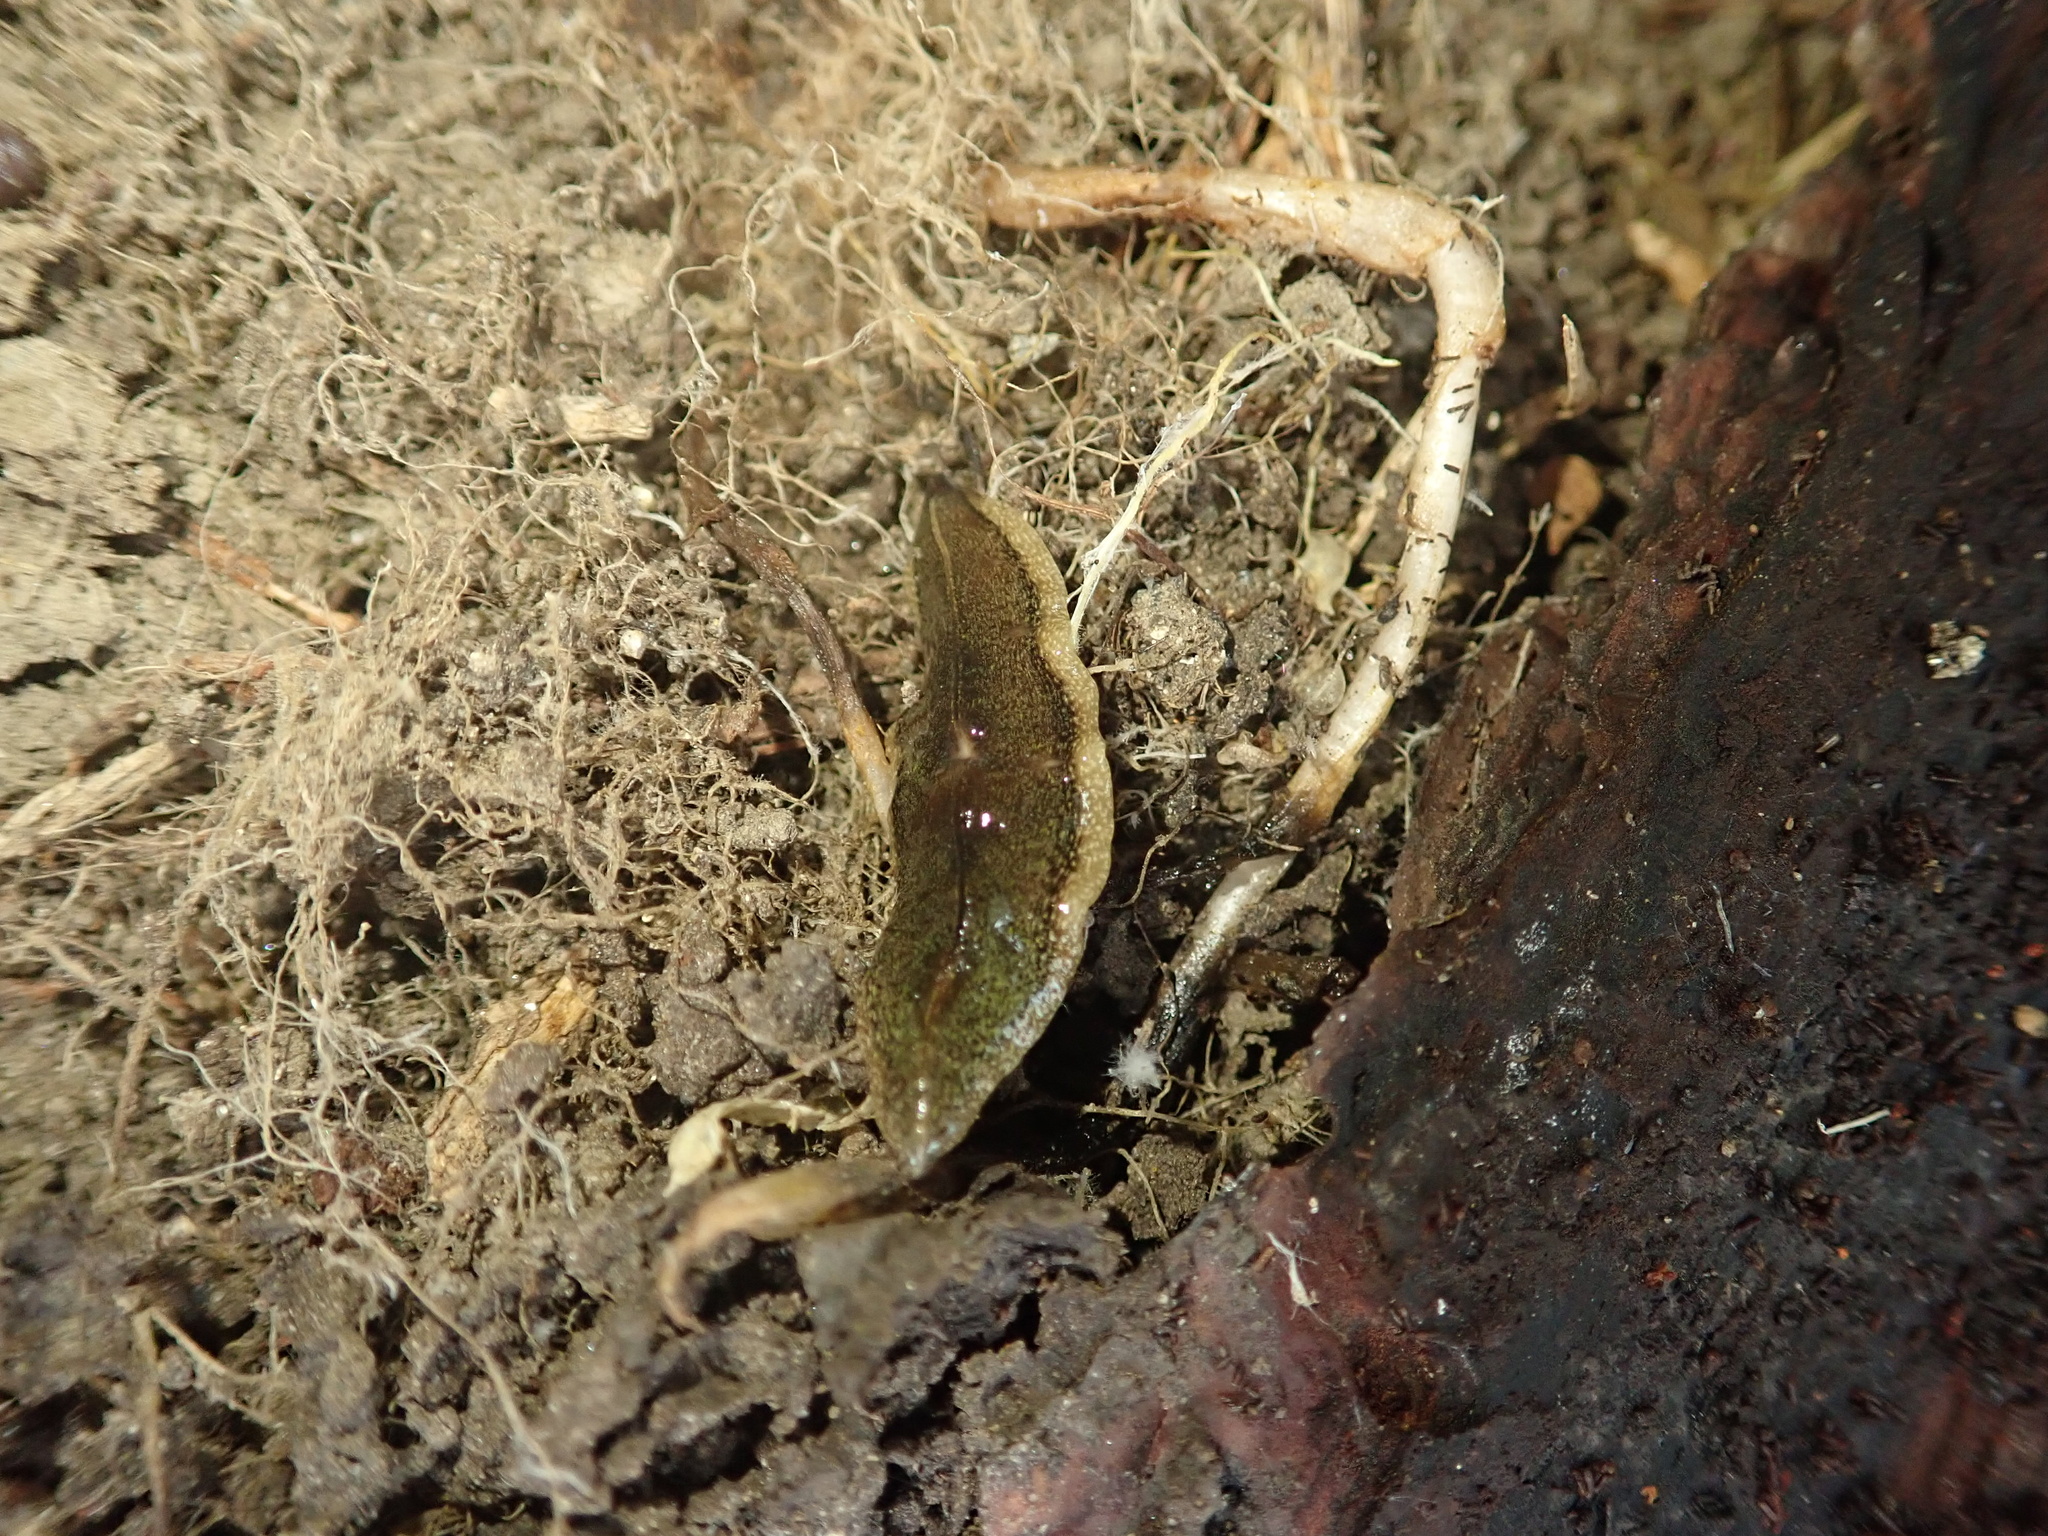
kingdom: Animalia
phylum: Platyhelminthes
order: Tricladida
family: Geoplanidae
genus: Newzealandia
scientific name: Newzealandia graffii
